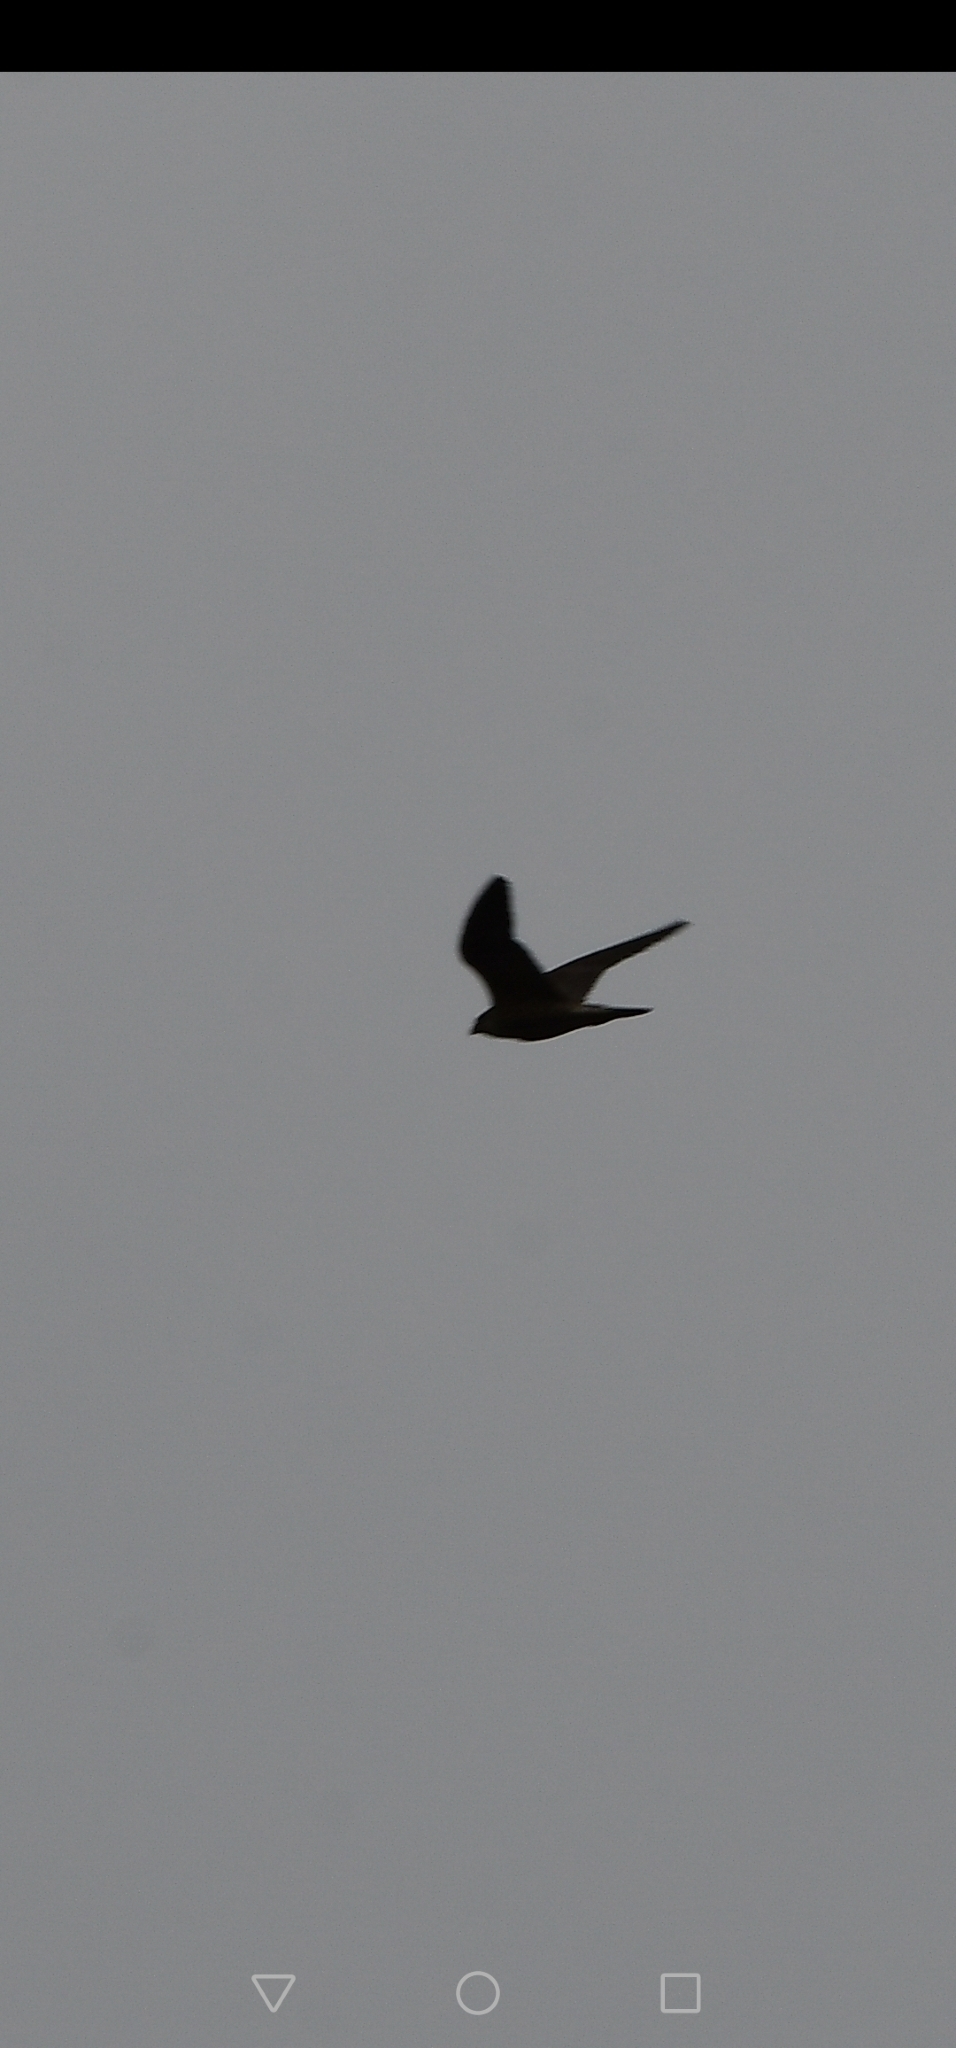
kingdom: Animalia
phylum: Chordata
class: Aves
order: Falconiformes
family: Falconidae
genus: Falco
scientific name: Falco peregrinus
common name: Peregrine falcon
